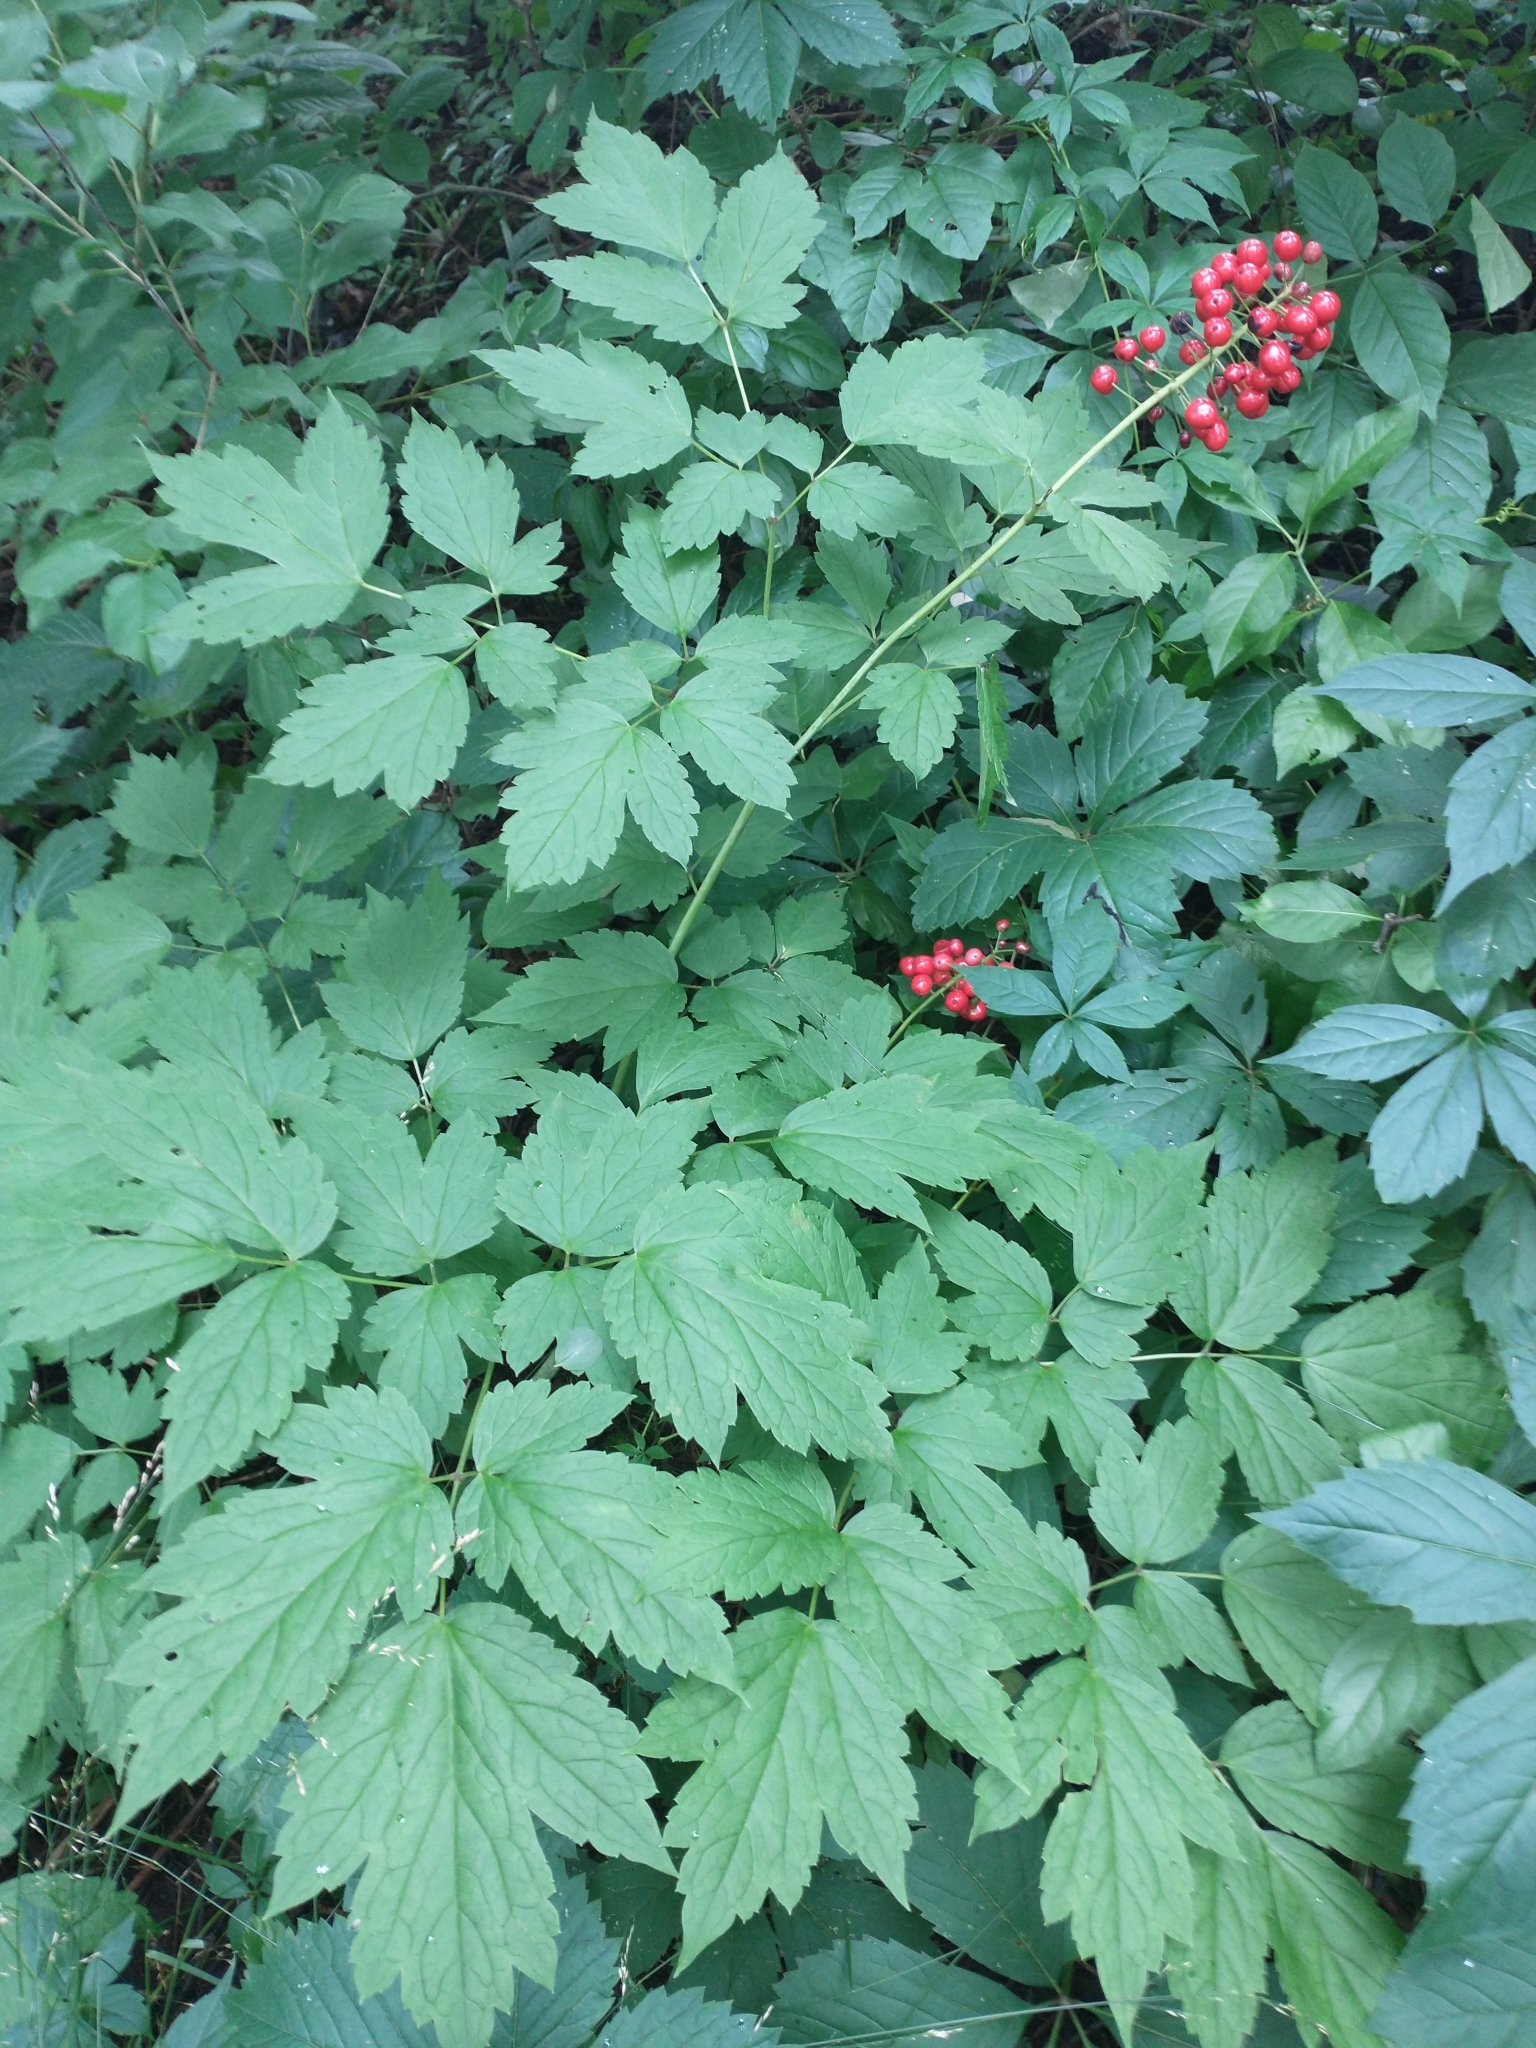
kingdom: Plantae
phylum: Tracheophyta
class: Magnoliopsida
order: Ranunculales
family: Ranunculaceae
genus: Actaea
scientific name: Actaea rubra
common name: Red baneberry
